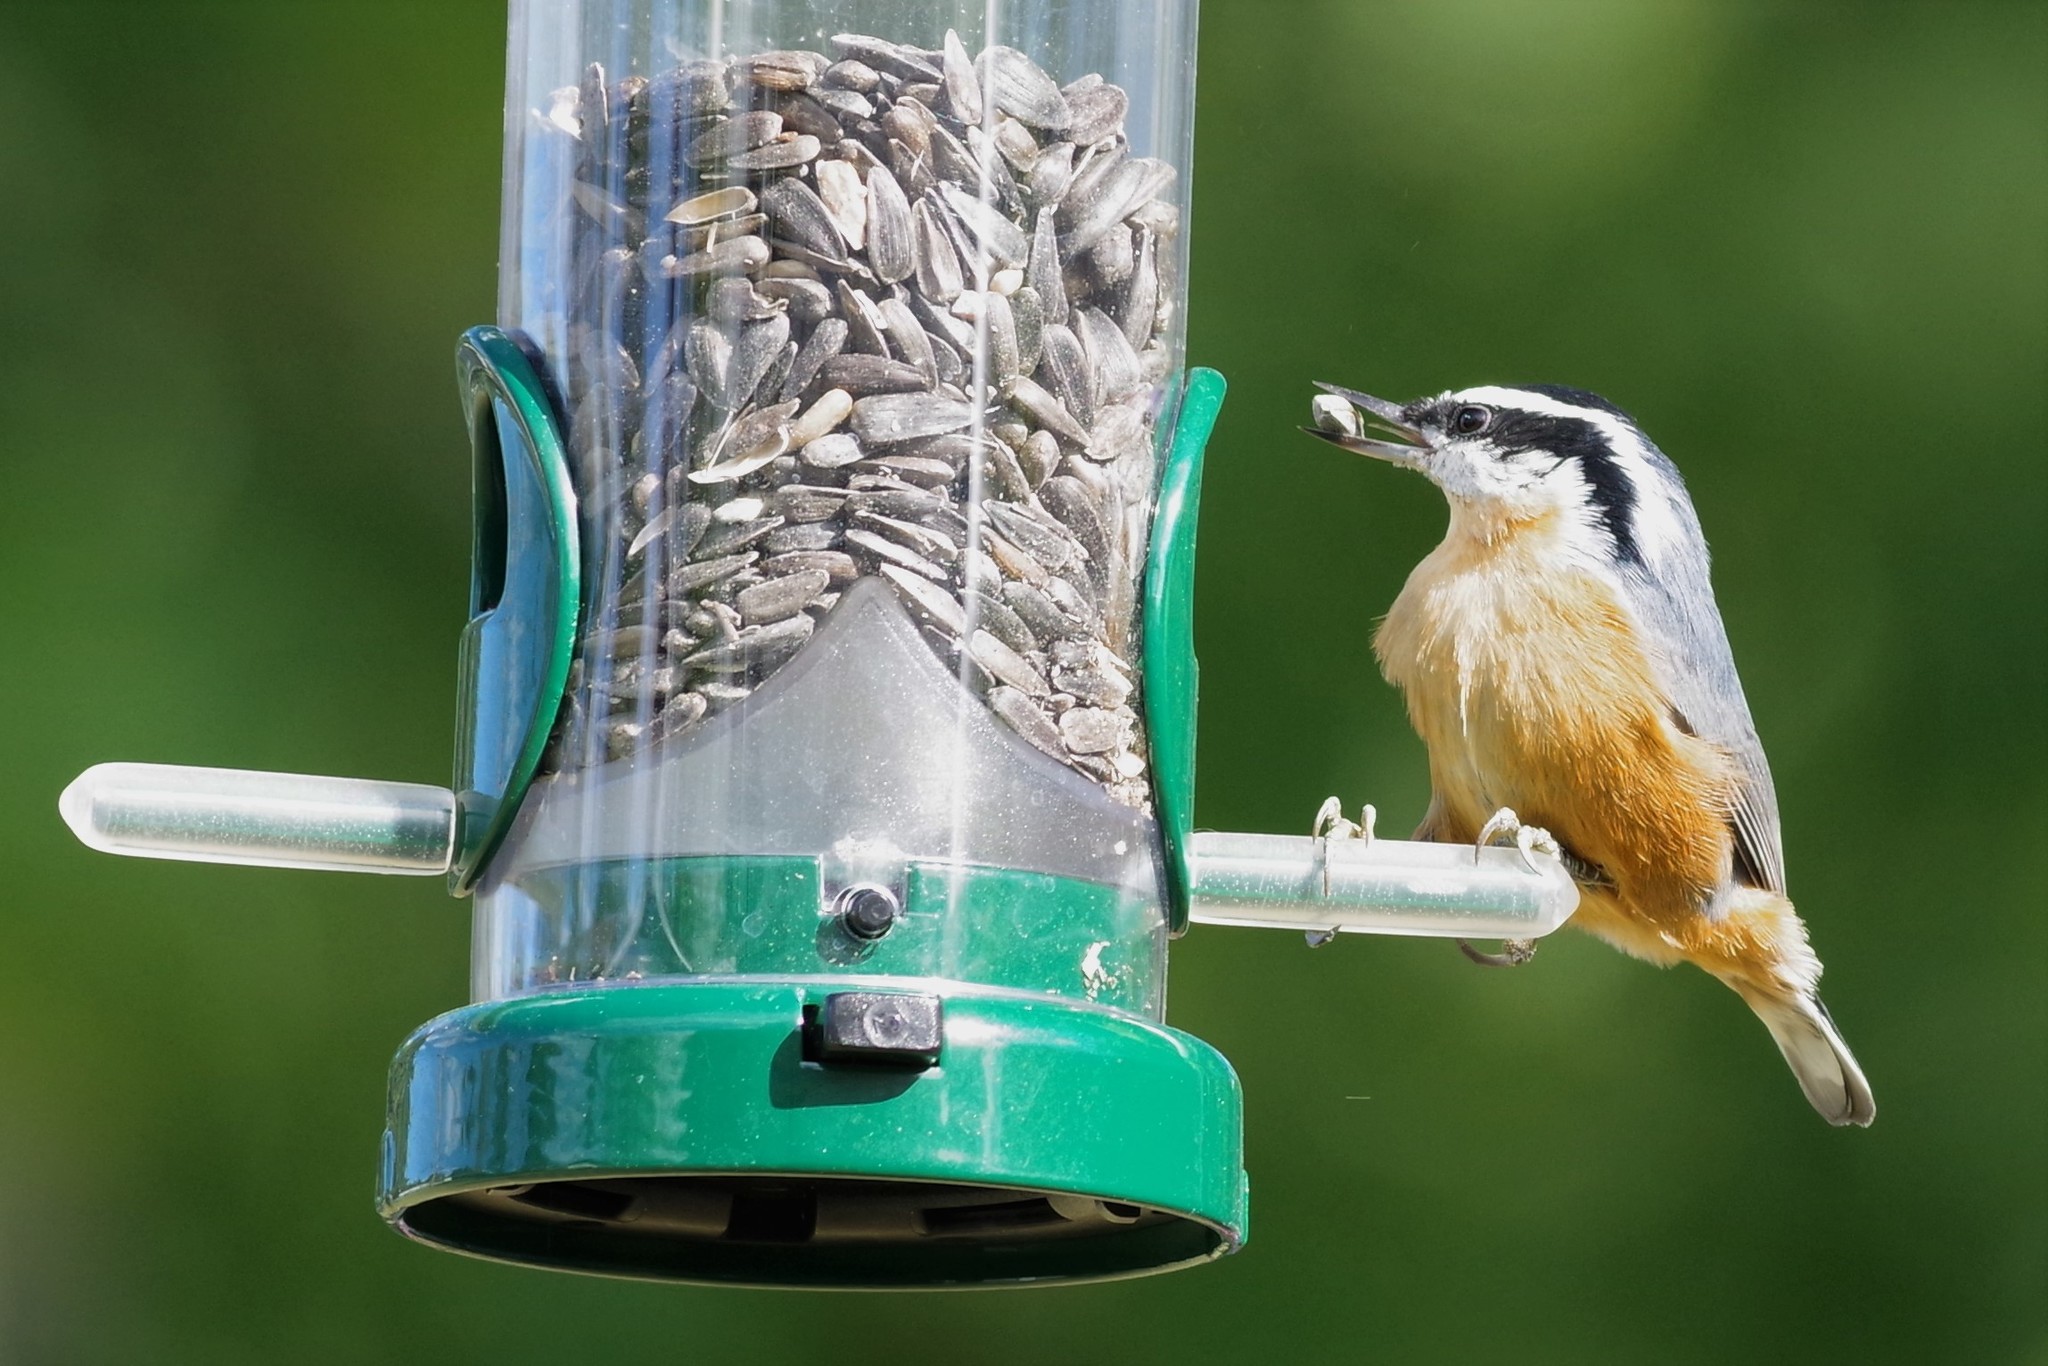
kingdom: Animalia
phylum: Chordata
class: Aves
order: Passeriformes
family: Sittidae
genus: Sitta
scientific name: Sitta canadensis
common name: Red-breasted nuthatch
